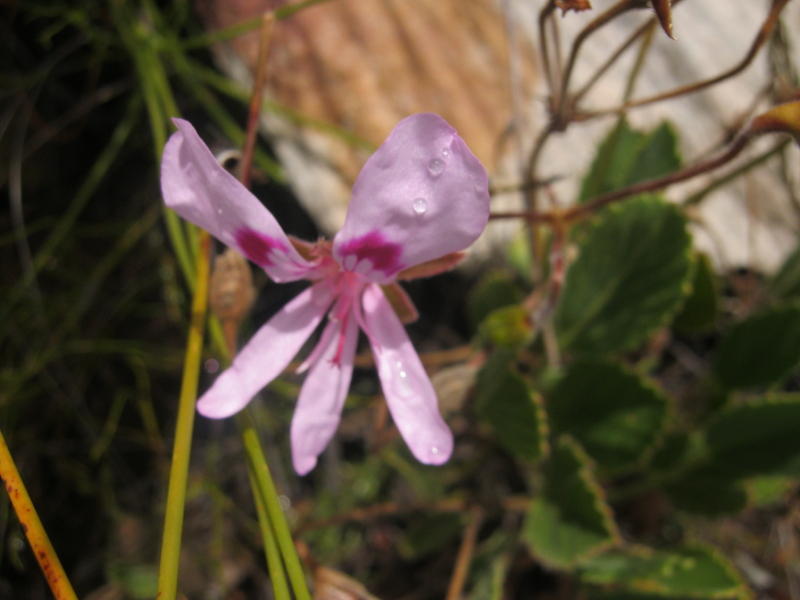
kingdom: Plantae
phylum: Tracheophyta
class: Magnoliopsida
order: Geraniales
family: Geraniaceae
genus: Pelargonium
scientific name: Pelargonium ovale
